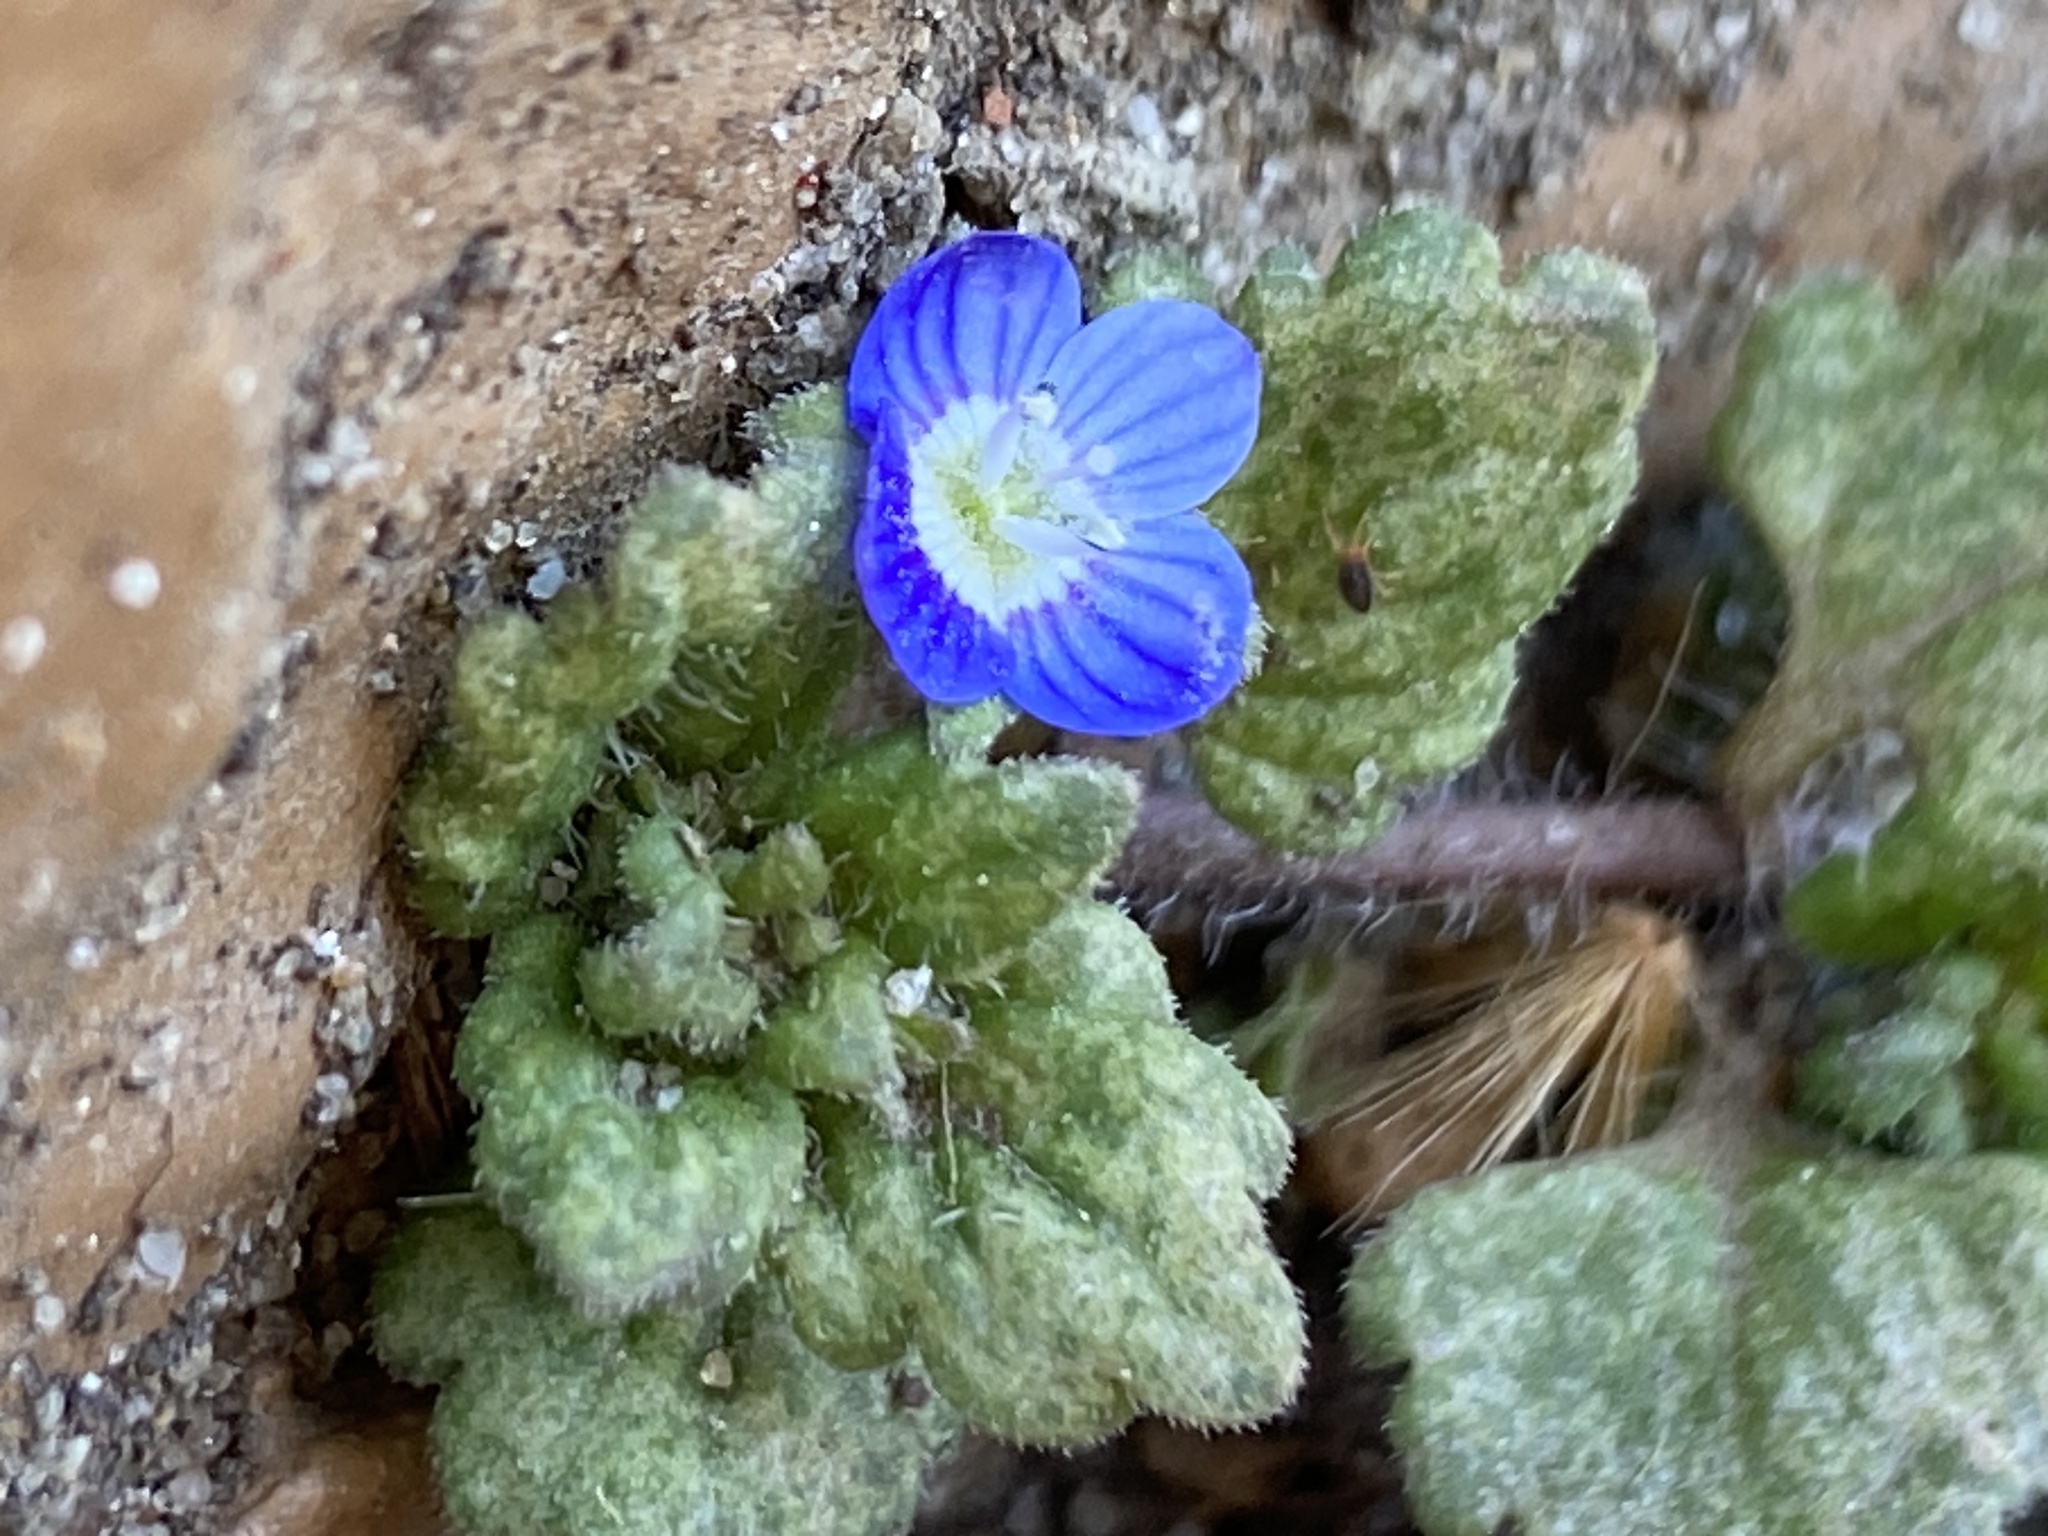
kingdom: Plantae
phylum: Tracheophyta
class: Magnoliopsida
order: Lamiales
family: Plantaginaceae
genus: Veronica
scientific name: Veronica polita
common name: Grey field-speedwell
